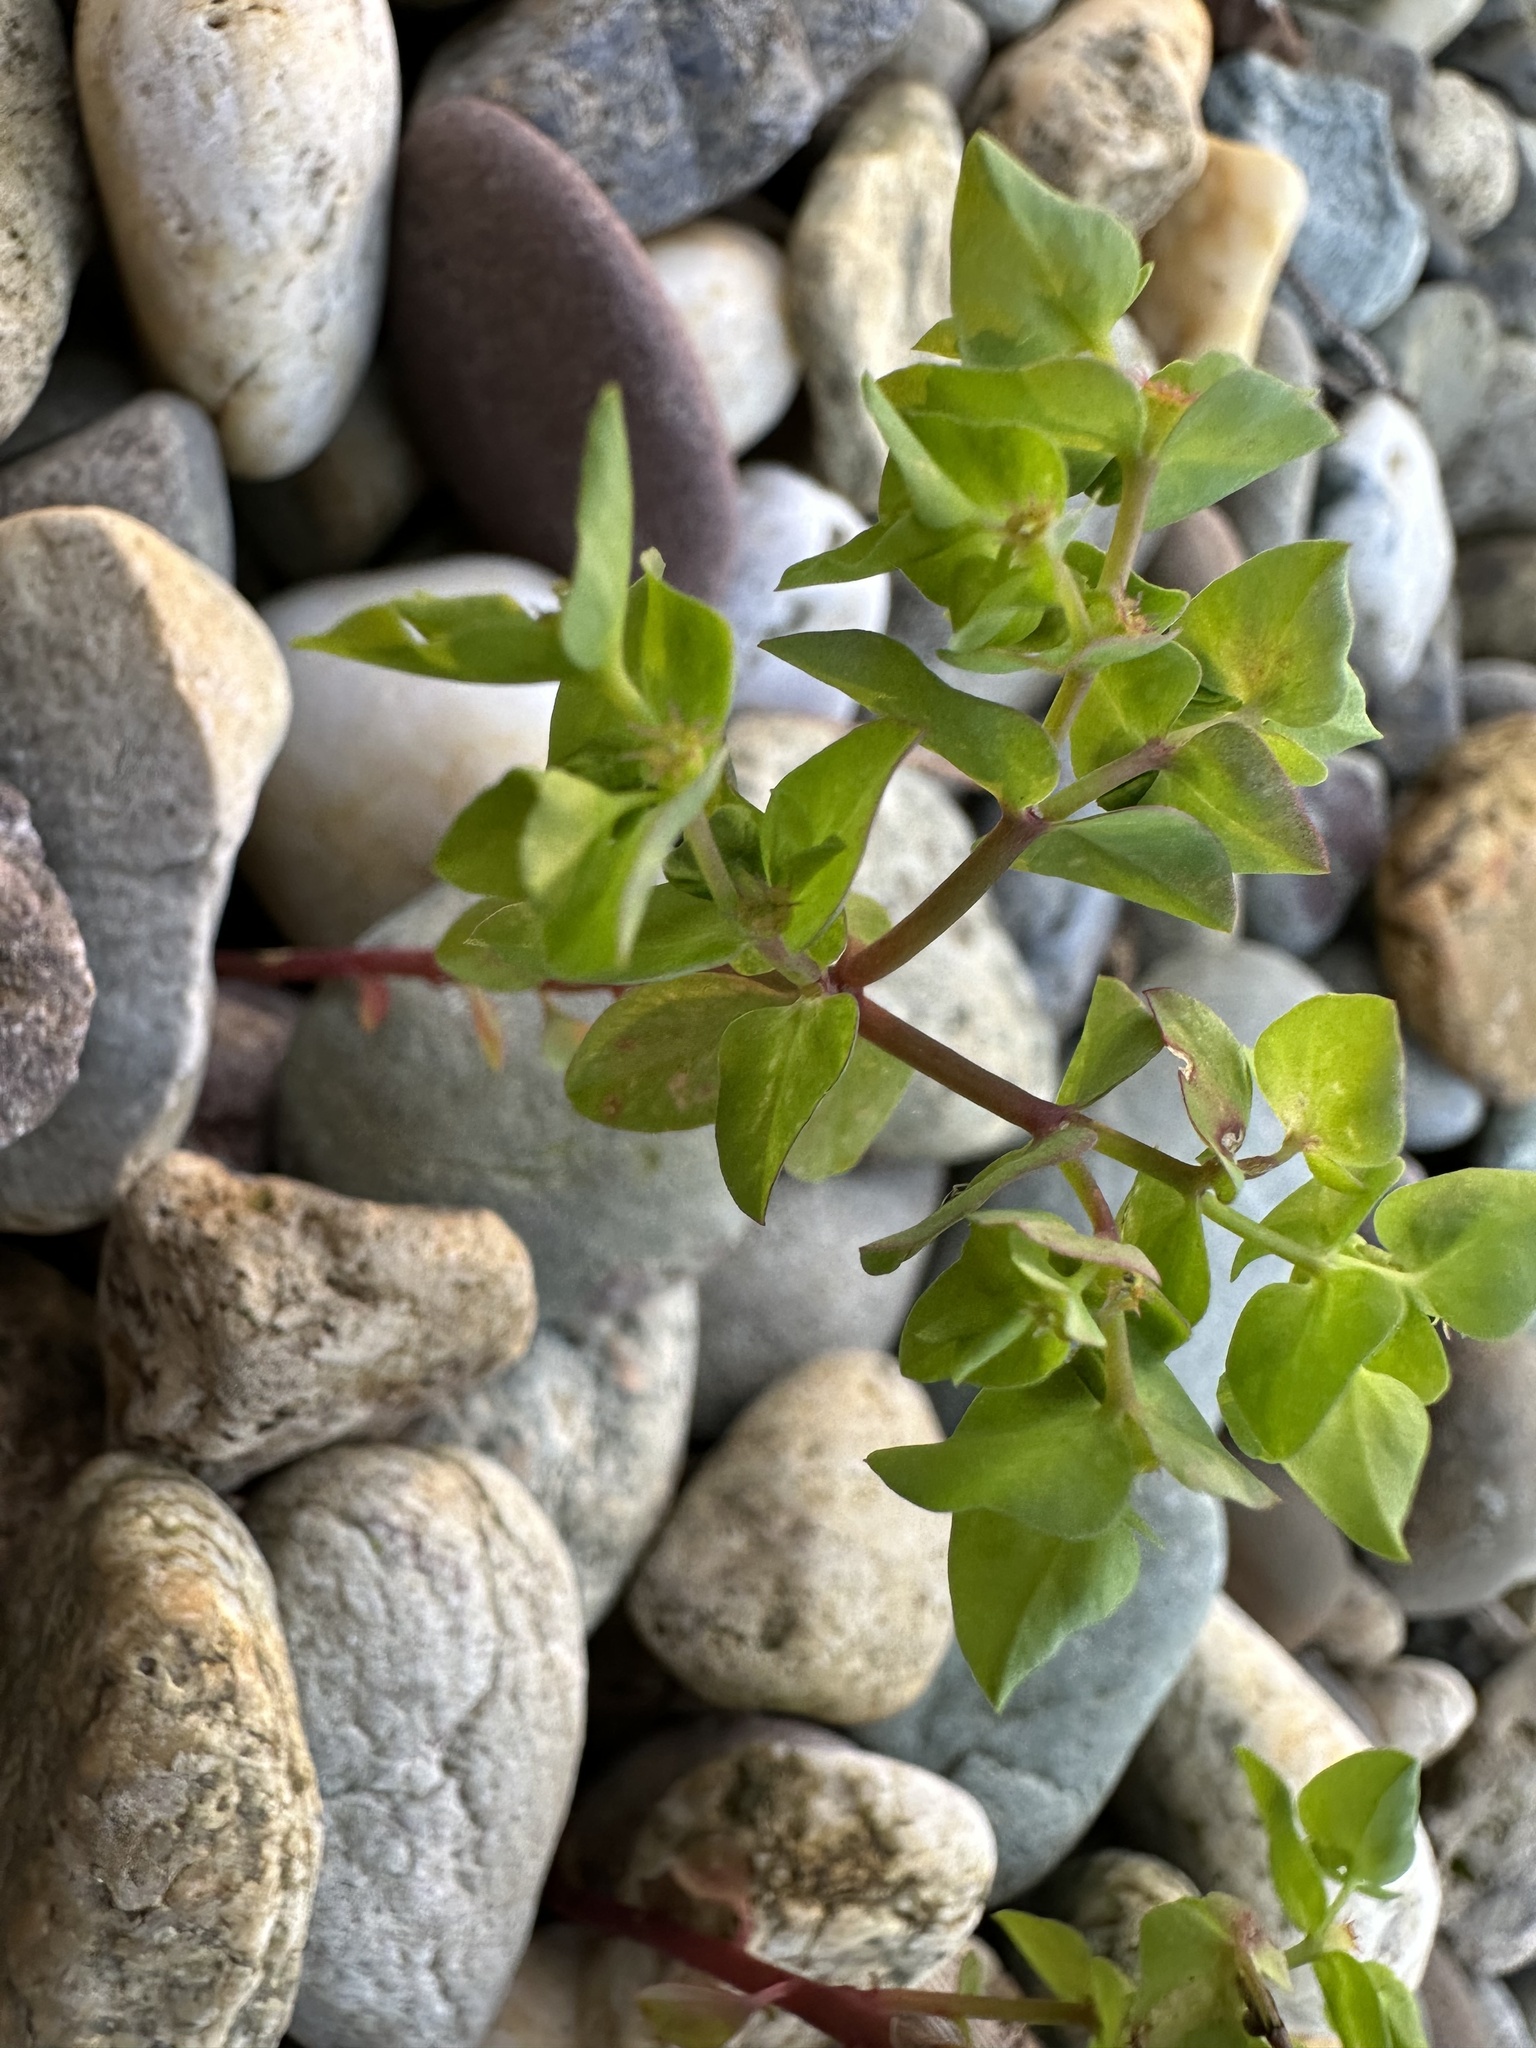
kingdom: Plantae
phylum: Tracheophyta
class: Magnoliopsida
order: Malpighiales
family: Euphorbiaceae
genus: Euphorbia
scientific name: Euphorbia peplus
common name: Petty spurge
